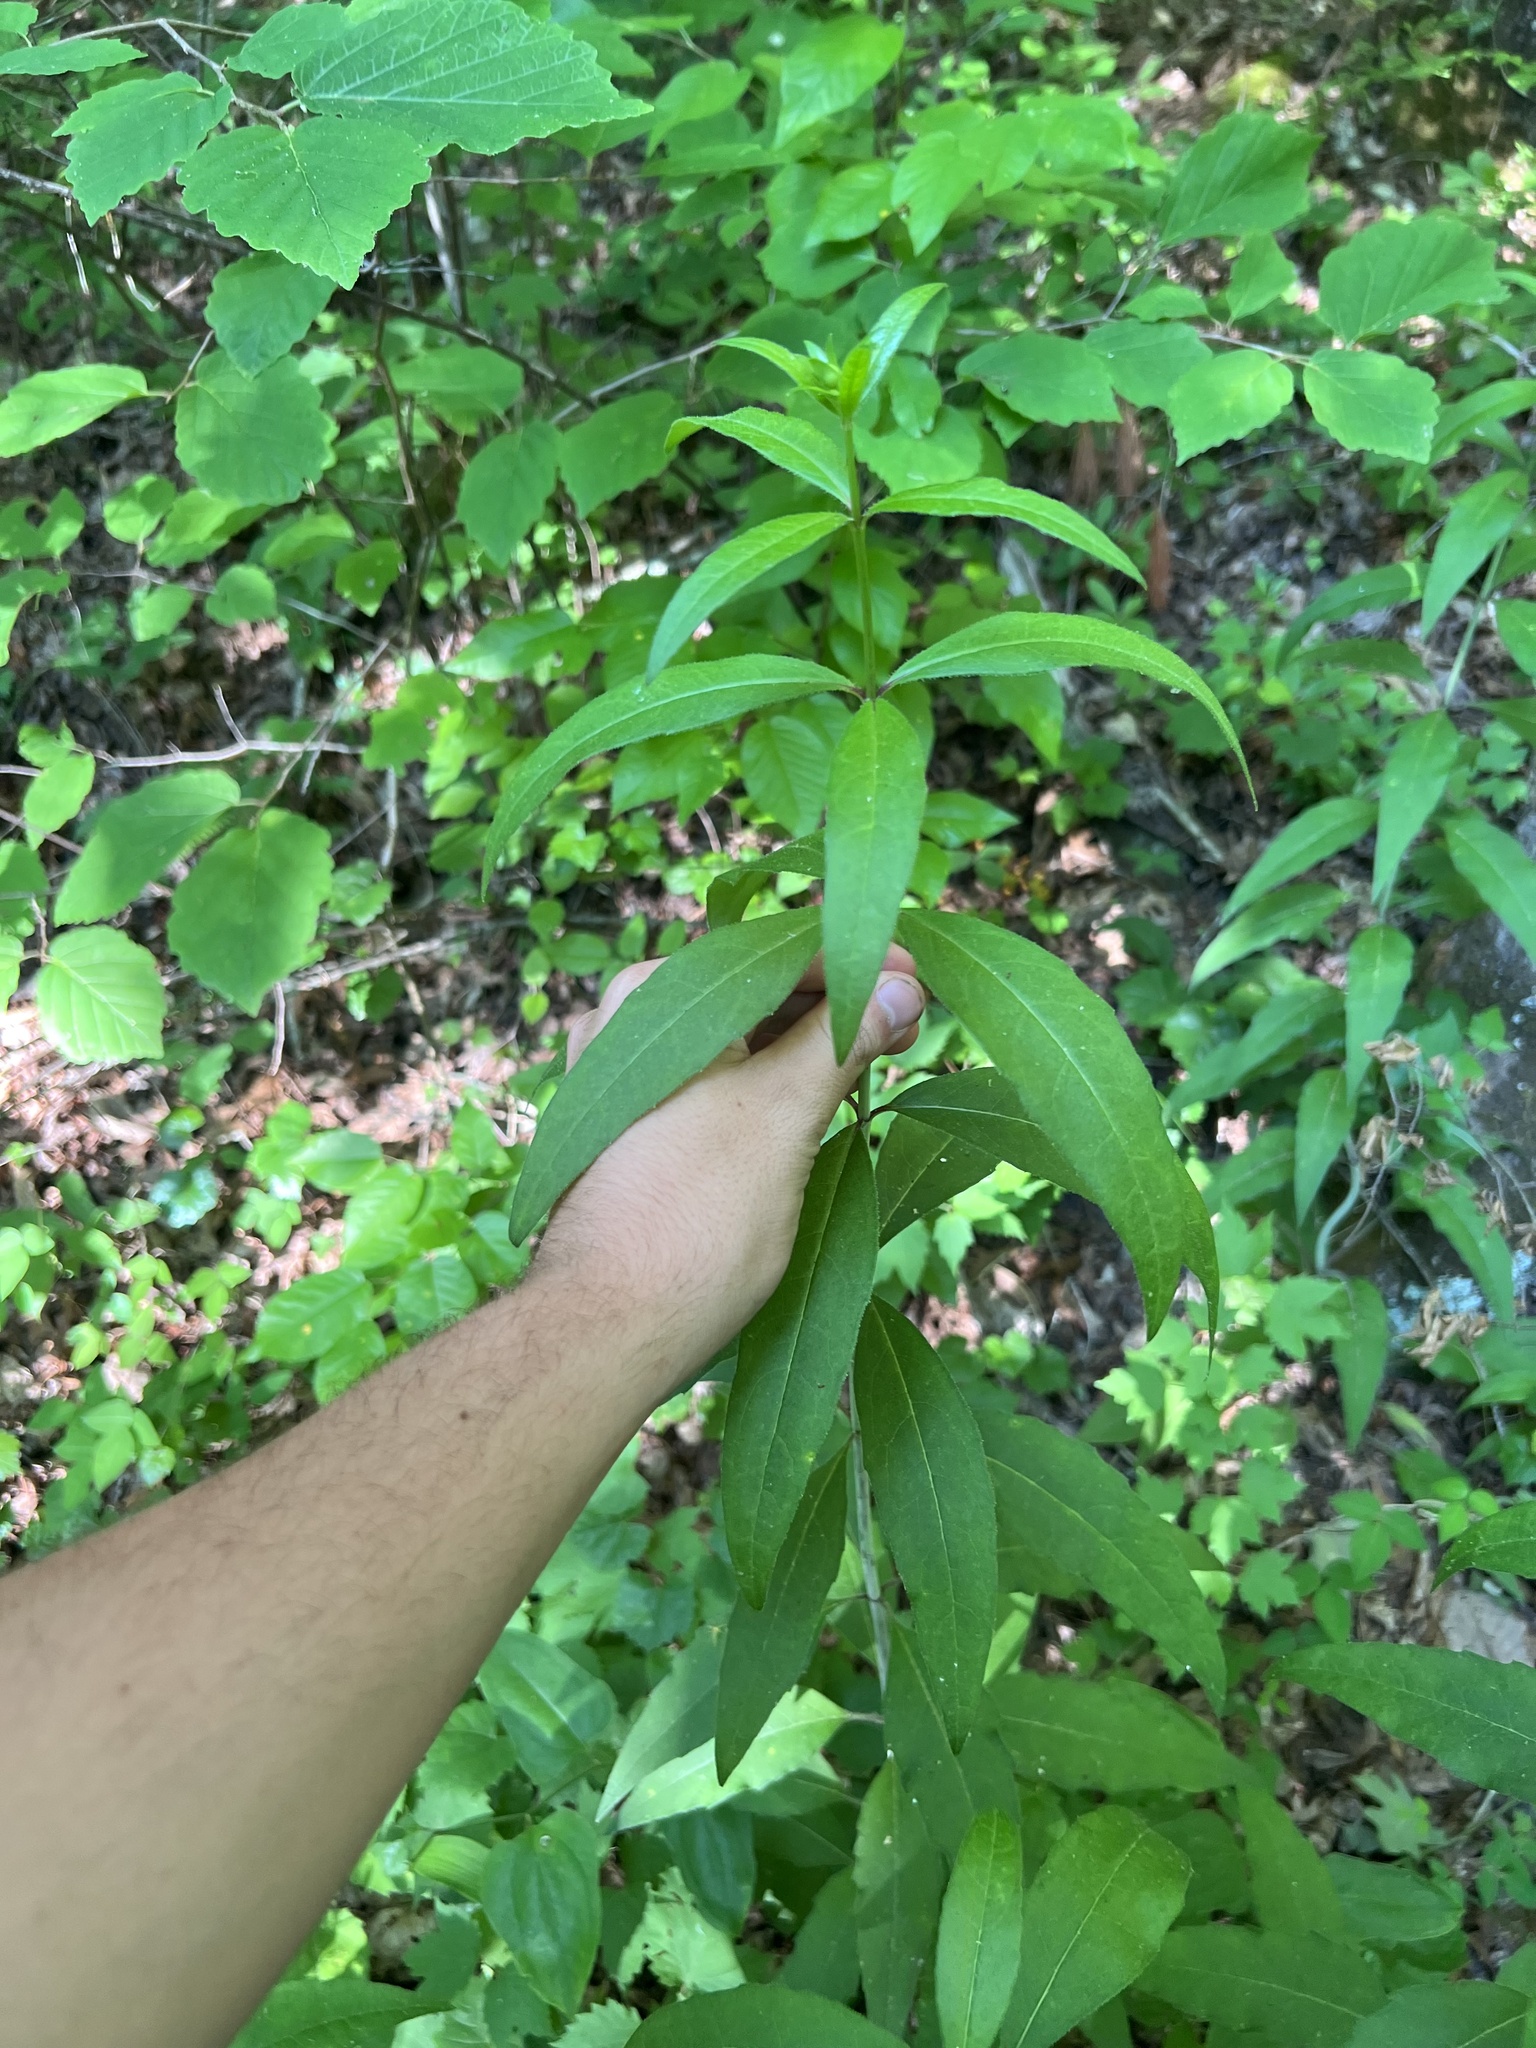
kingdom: Plantae
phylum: Tracheophyta
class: Magnoliopsida
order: Asterales
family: Asteraceae
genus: Silphium
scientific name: Silphium asteriscus
